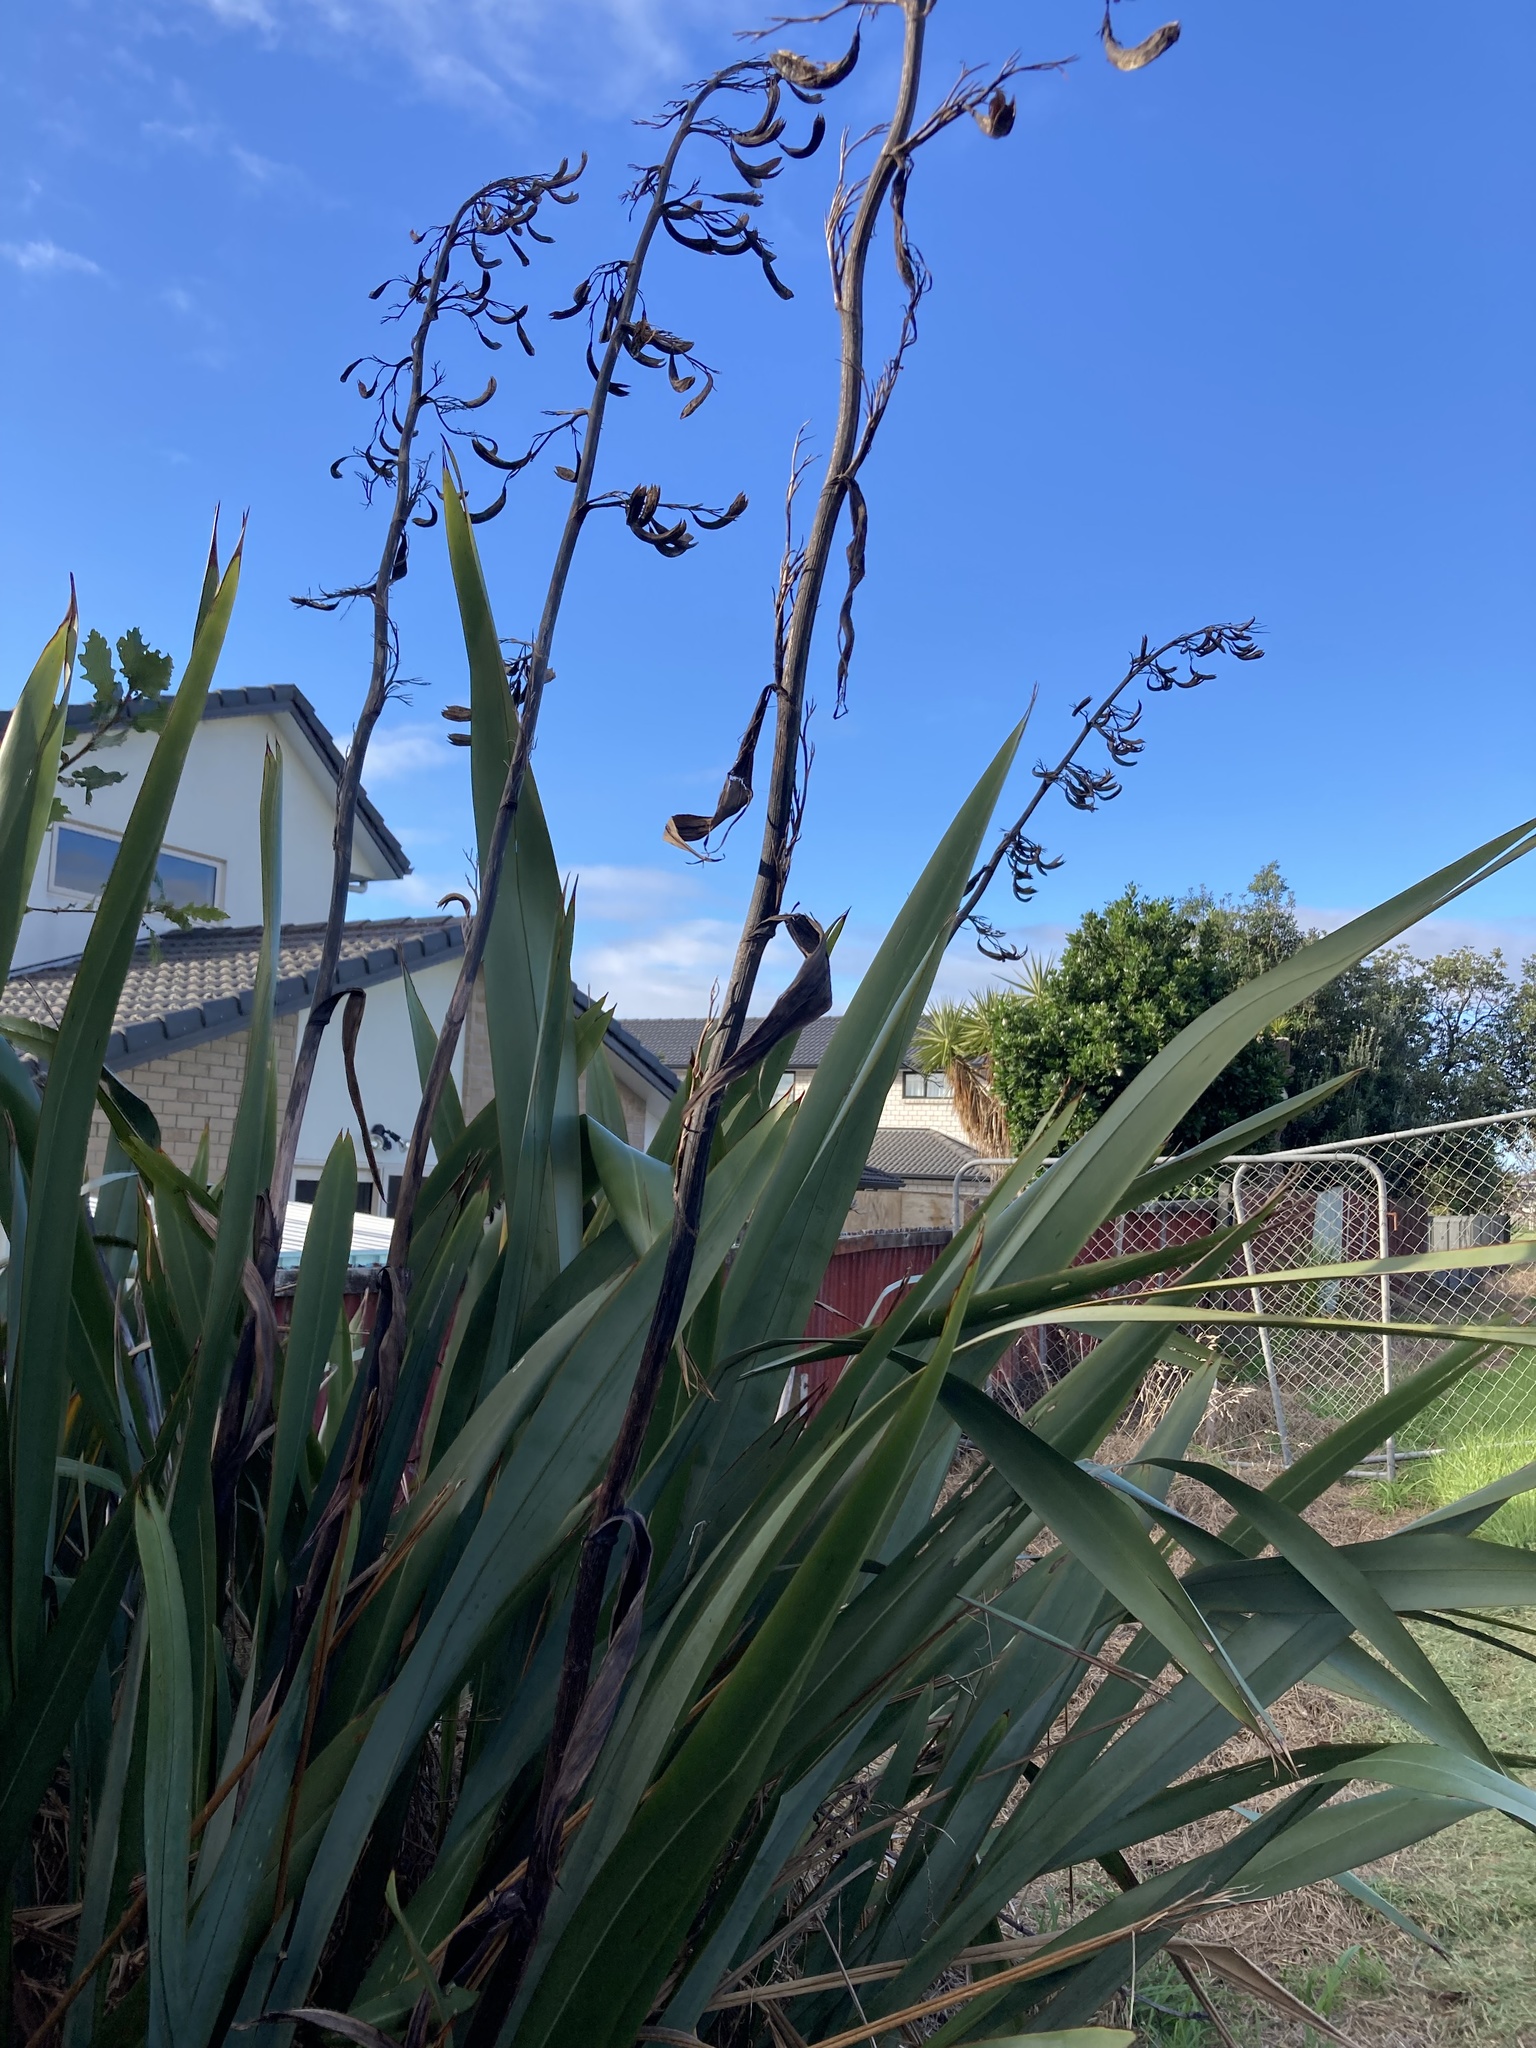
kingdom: Plantae
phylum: Tracheophyta
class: Liliopsida
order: Asparagales
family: Asphodelaceae
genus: Phormium
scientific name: Phormium tenax
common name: New zealand flax
